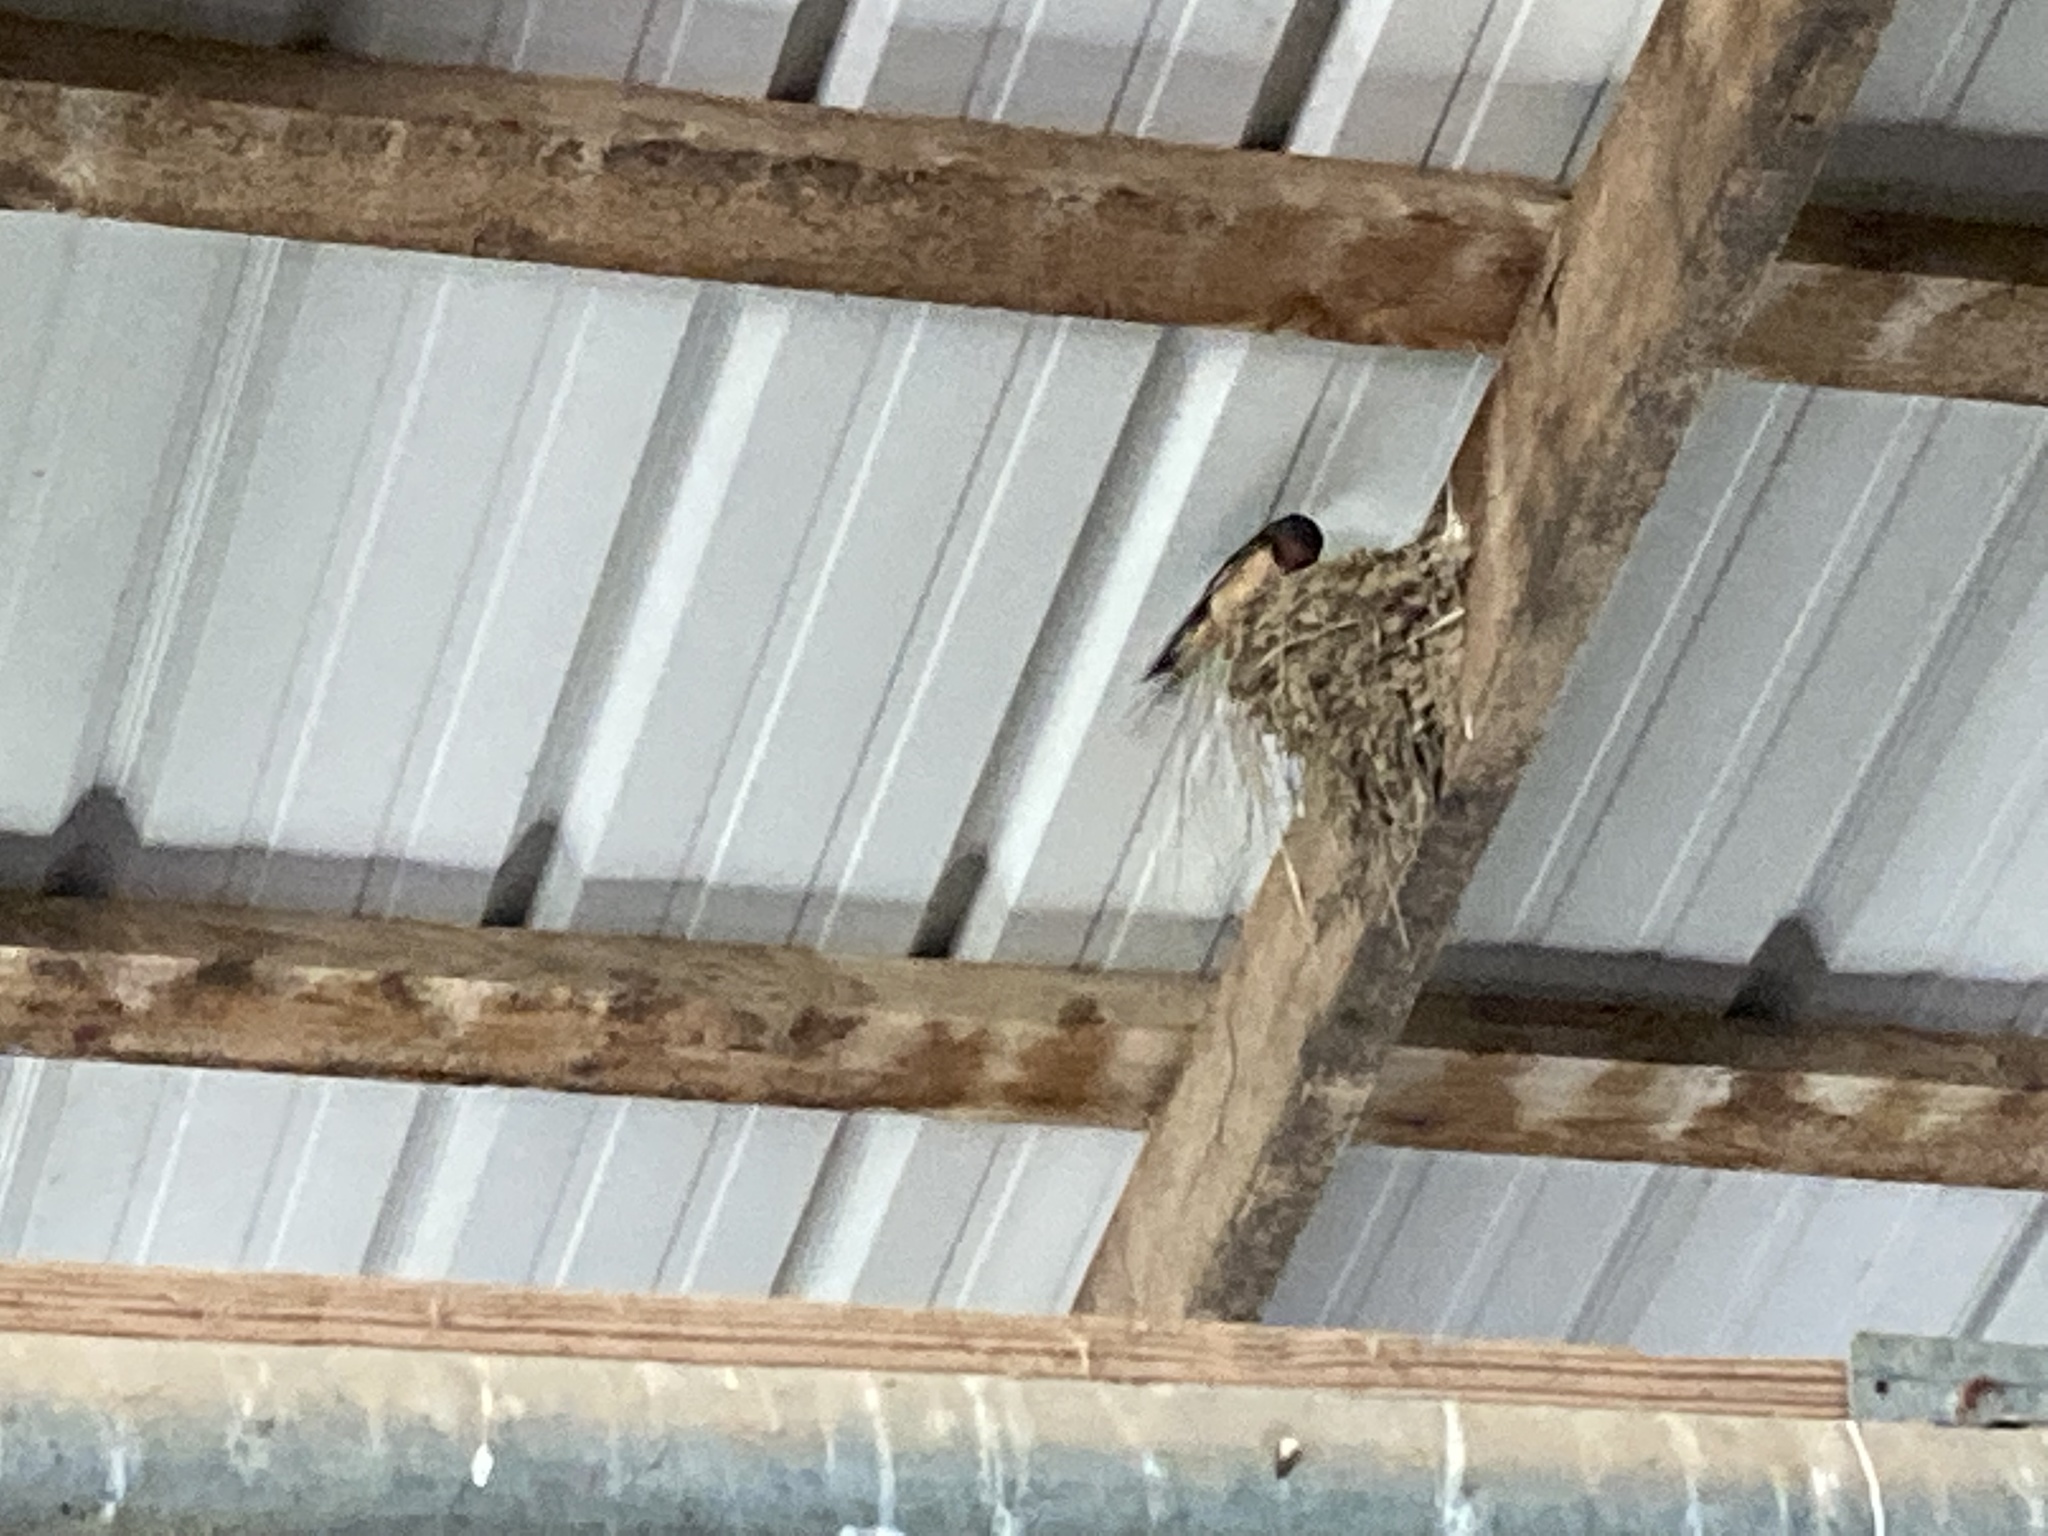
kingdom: Animalia
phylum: Chordata
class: Aves
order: Passeriformes
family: Hirundinidae
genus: Hirundo
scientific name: Hirundo rustica
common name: Barn swallow
